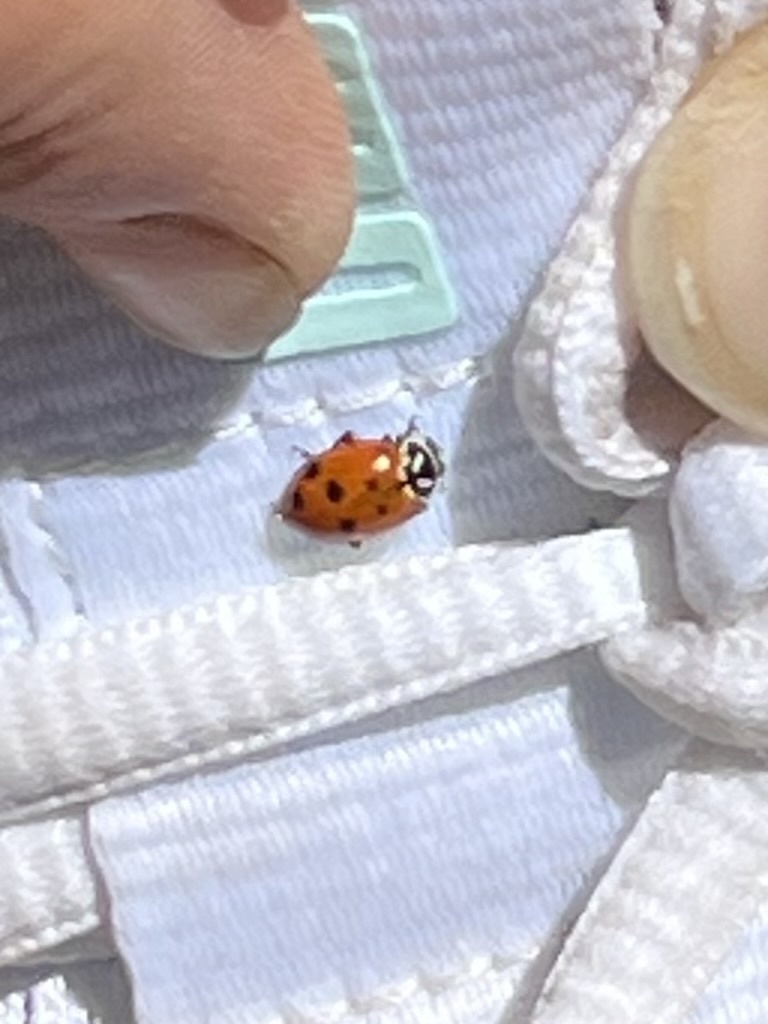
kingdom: Animalia
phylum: Arthropoda
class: Insecta
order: Coleoptera
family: Coccinellidae
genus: Hippodamia
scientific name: Hippodamia convergens
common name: Convergent lady beetle
